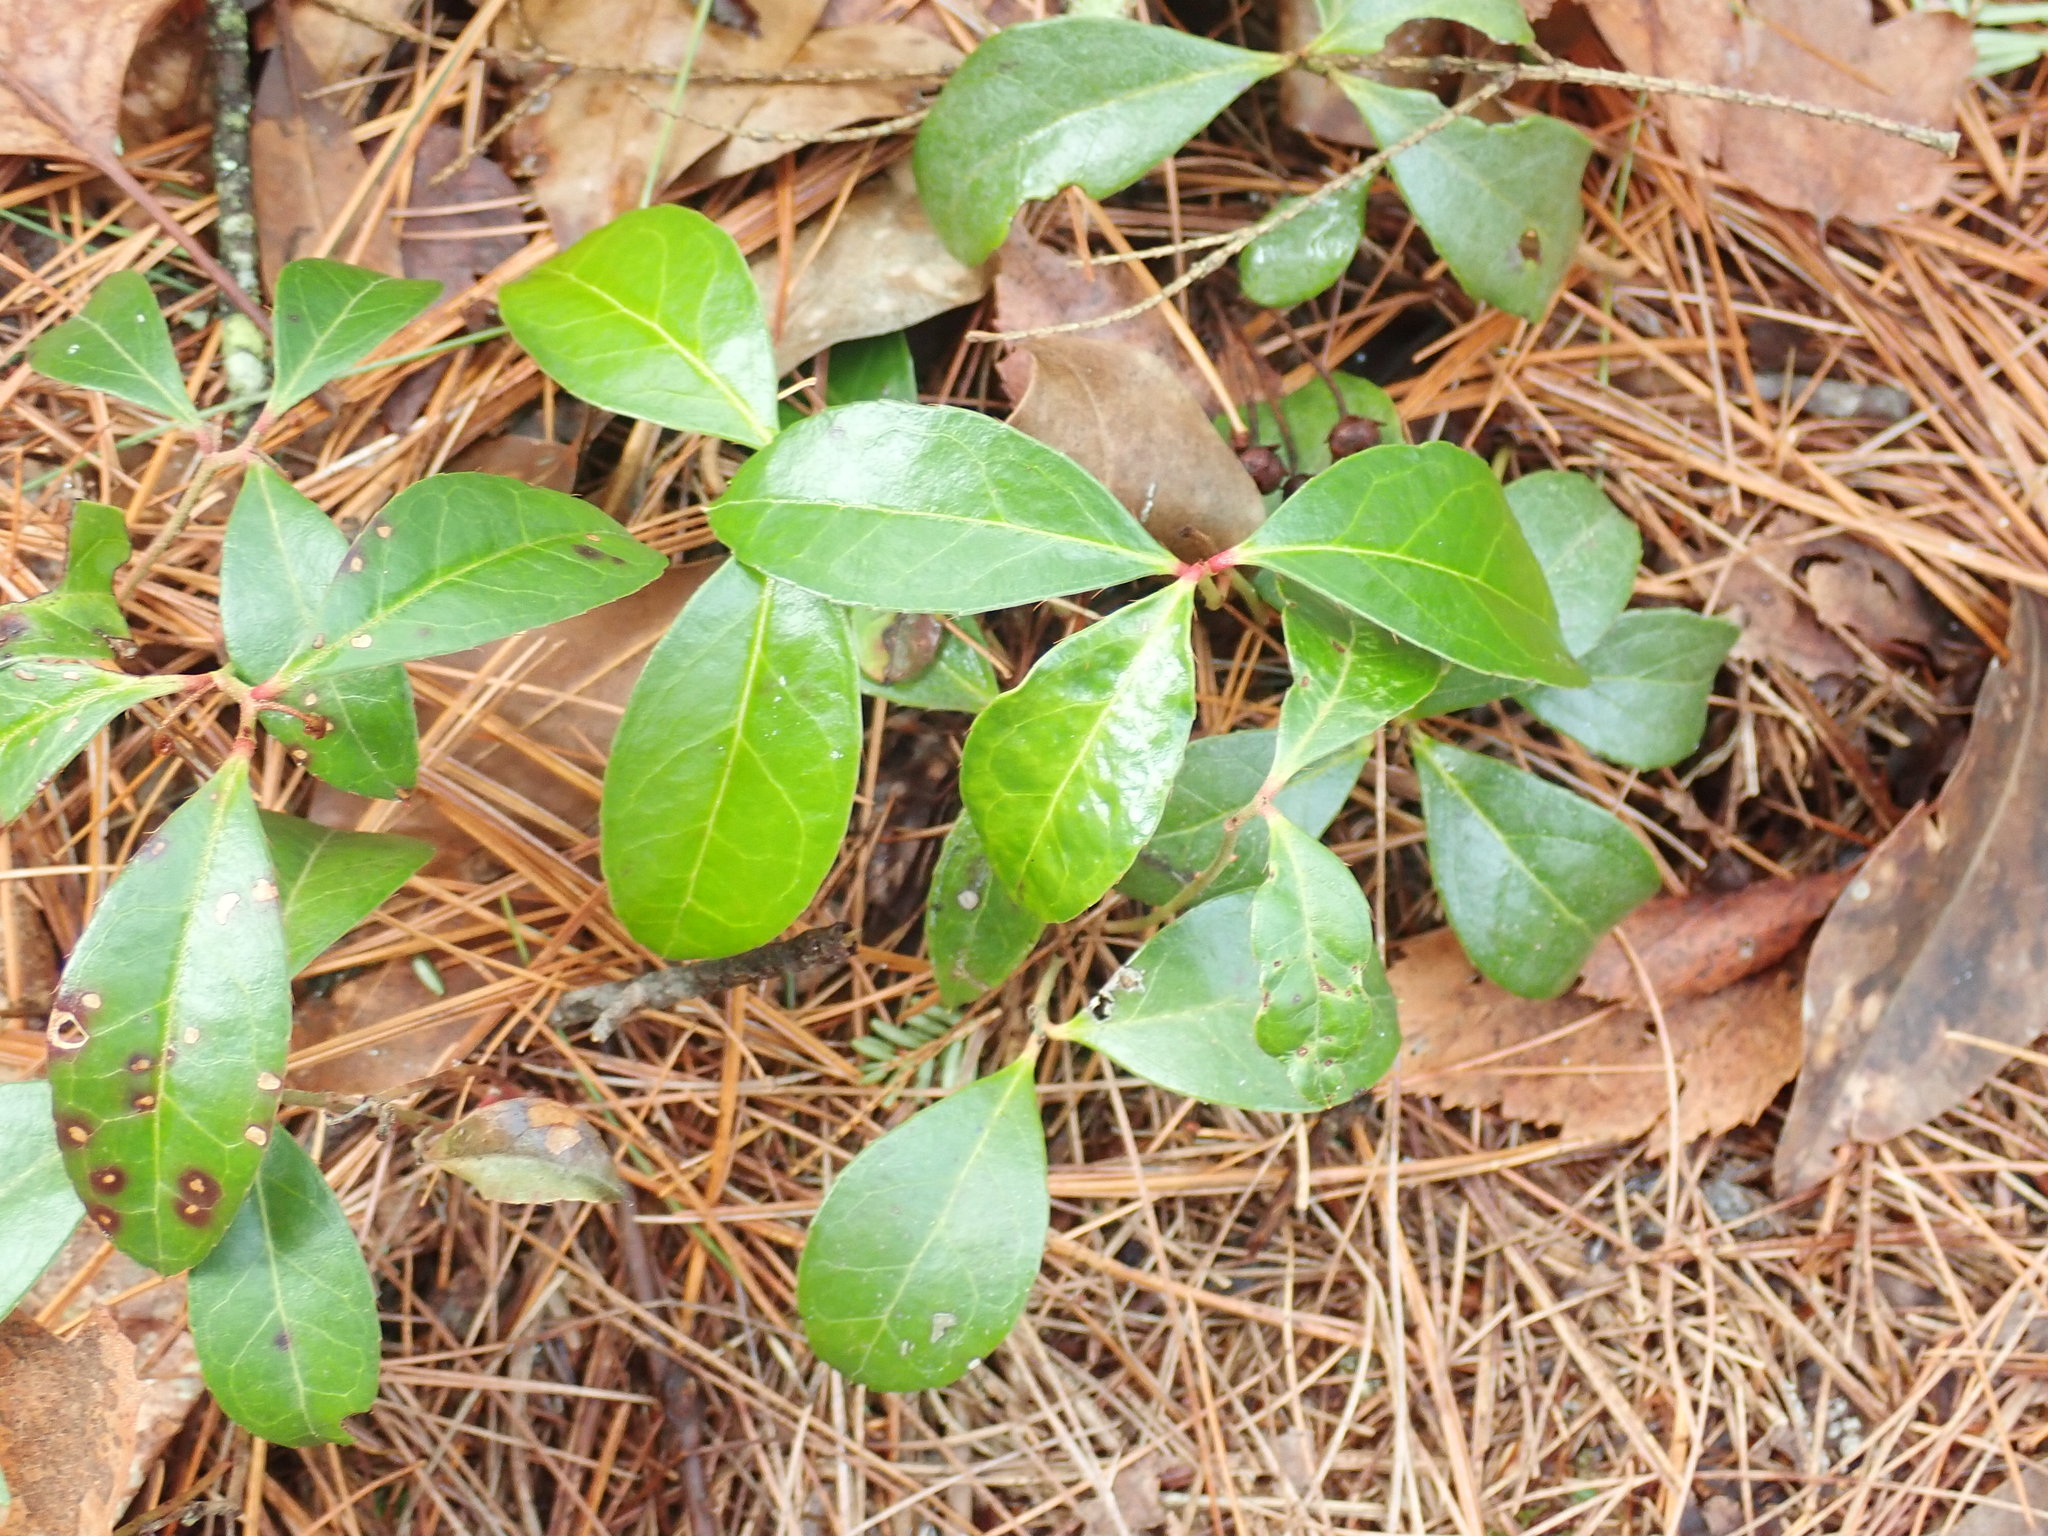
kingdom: Plantae
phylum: Tracheophyta
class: Magnoliopsida
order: Ericales
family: Ericaceae
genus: Gaultheria
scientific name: Gaultheria procumbens
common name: Checkerberry
